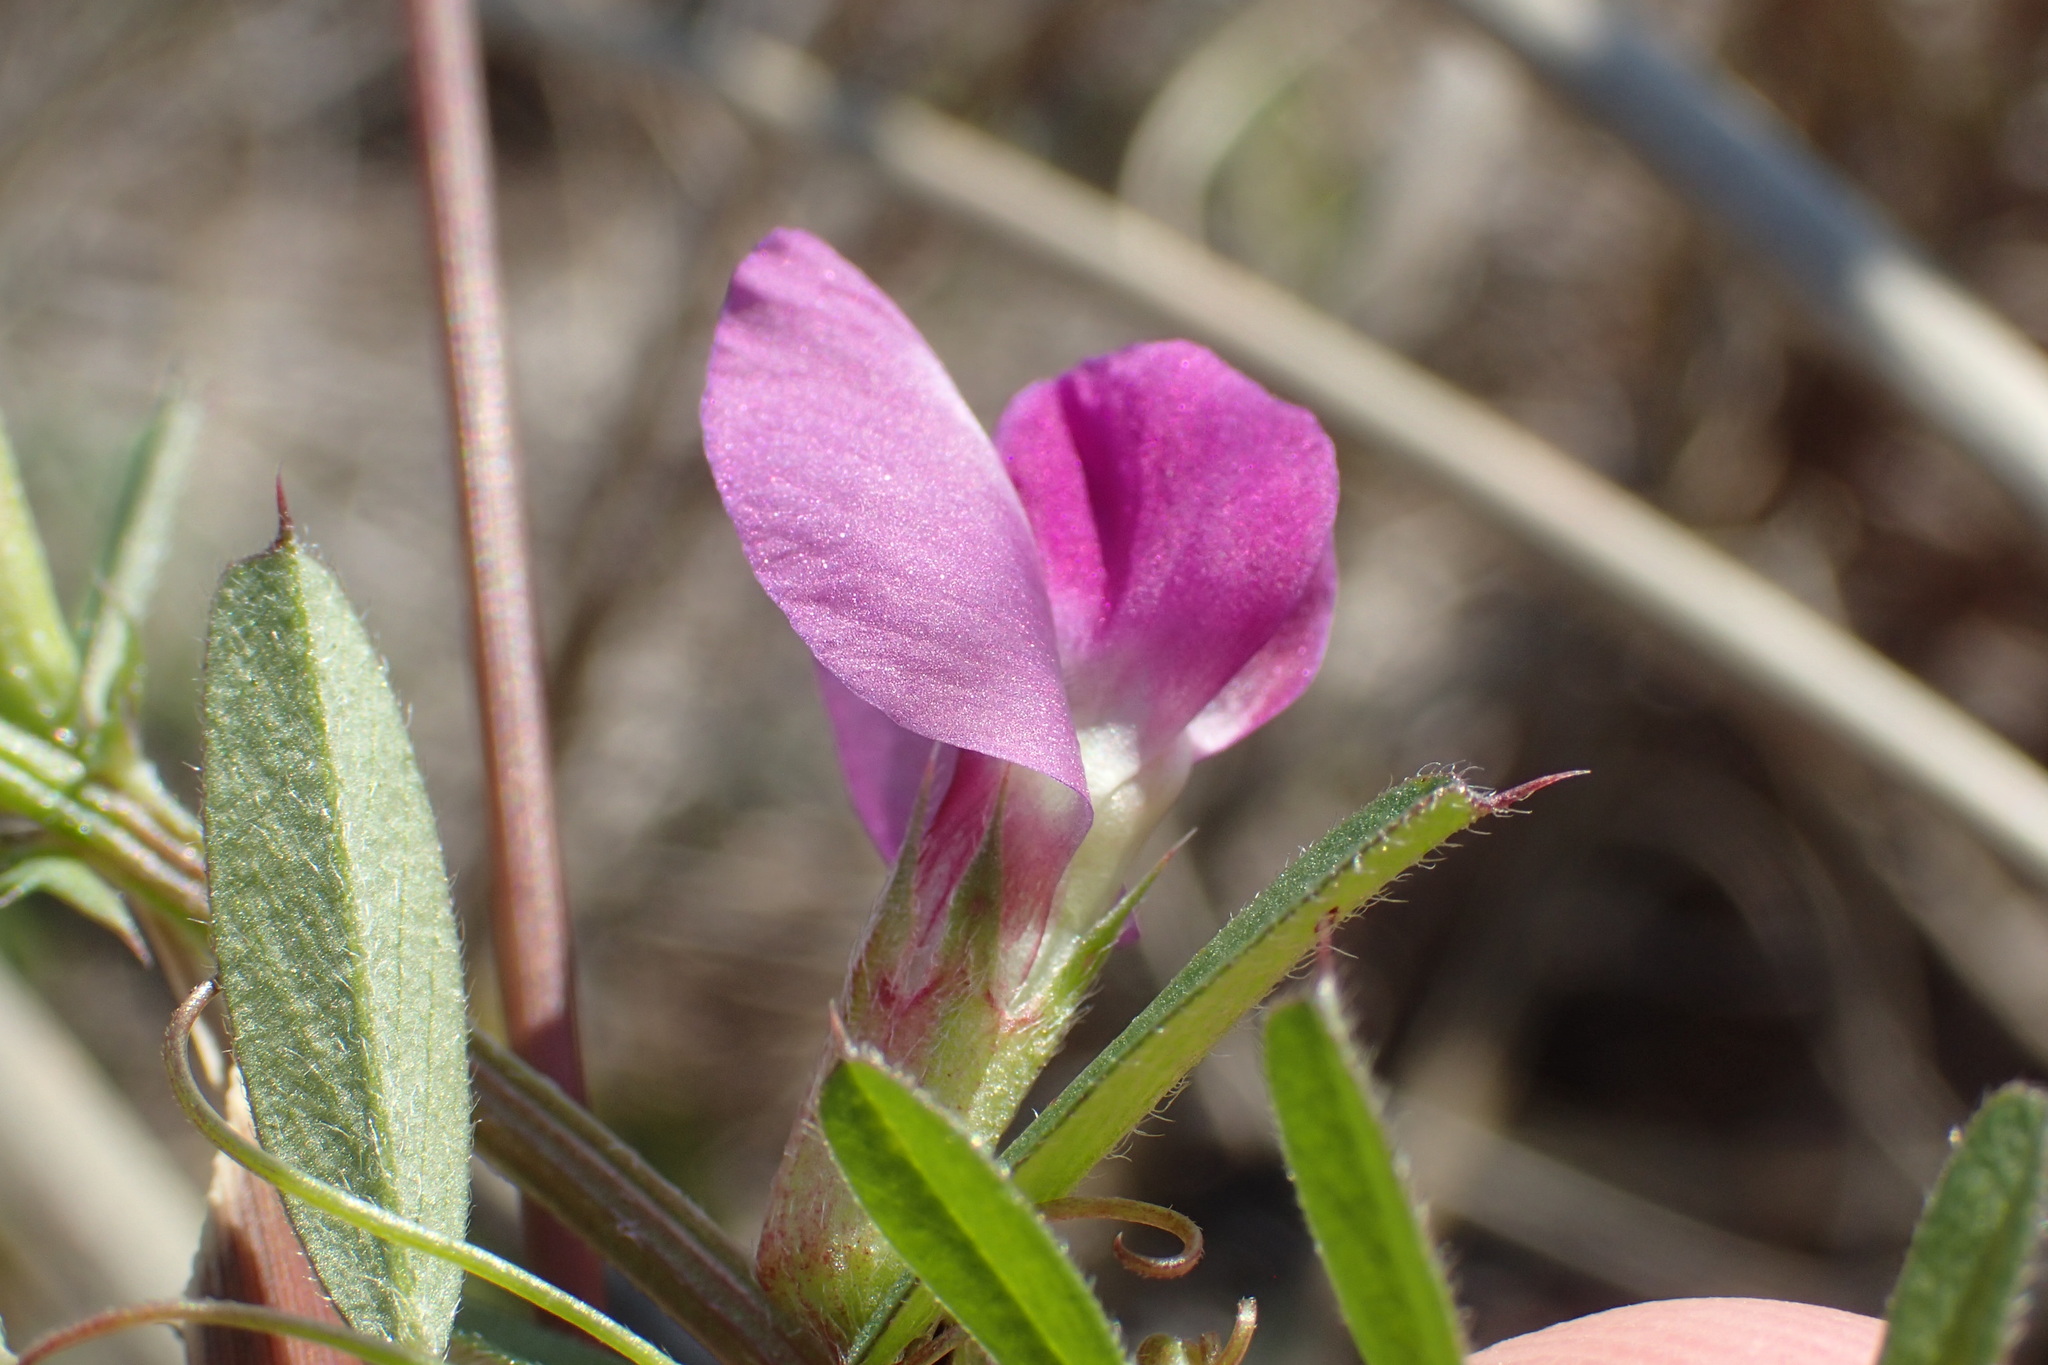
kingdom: Plantae
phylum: Tracheophyta
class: Magnoliopsida
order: Fabales
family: Fabaceae
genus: Vicia
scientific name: Vicia sativa
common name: Garden vetch
